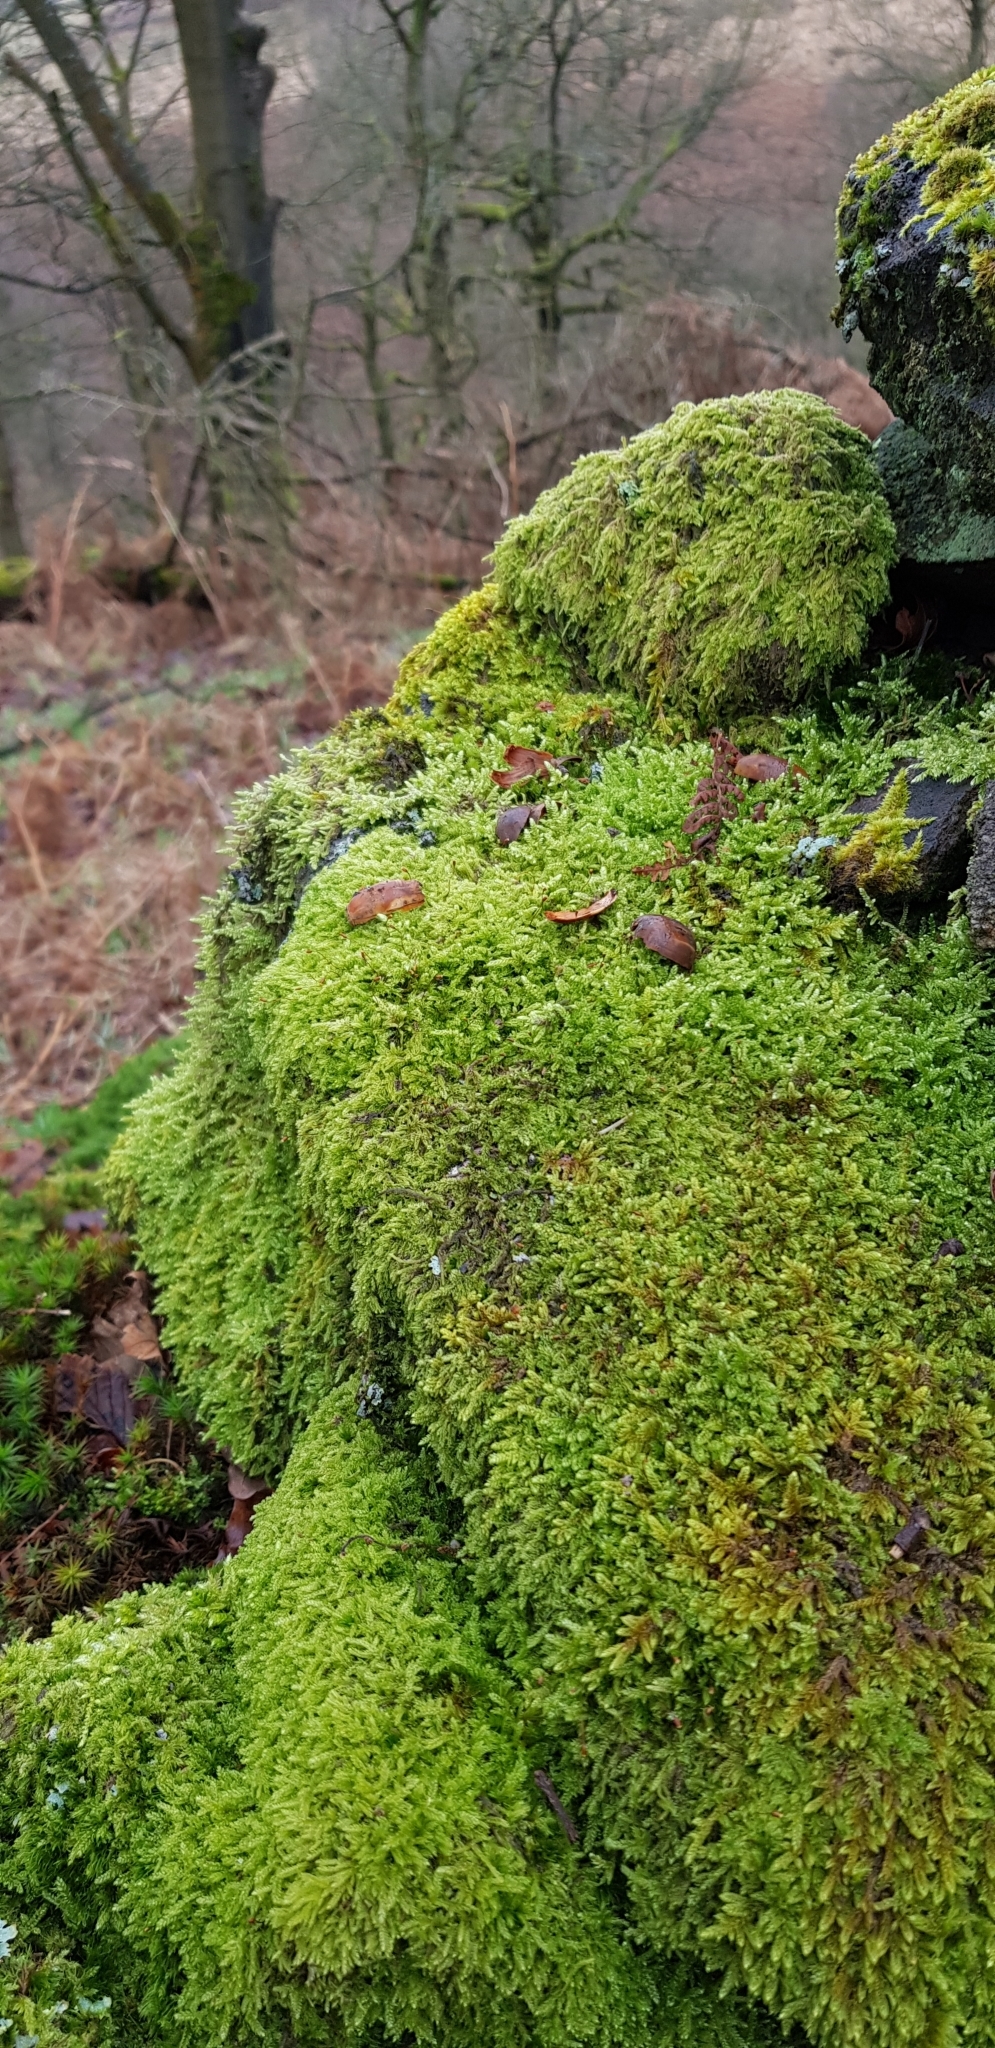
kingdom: Plantae
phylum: Bryophyta
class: Bryopsida
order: Hypnales
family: Hypnaceae
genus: Hypnum
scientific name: Hypnum cupressiforme
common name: Cypress-leaved plait-moss
